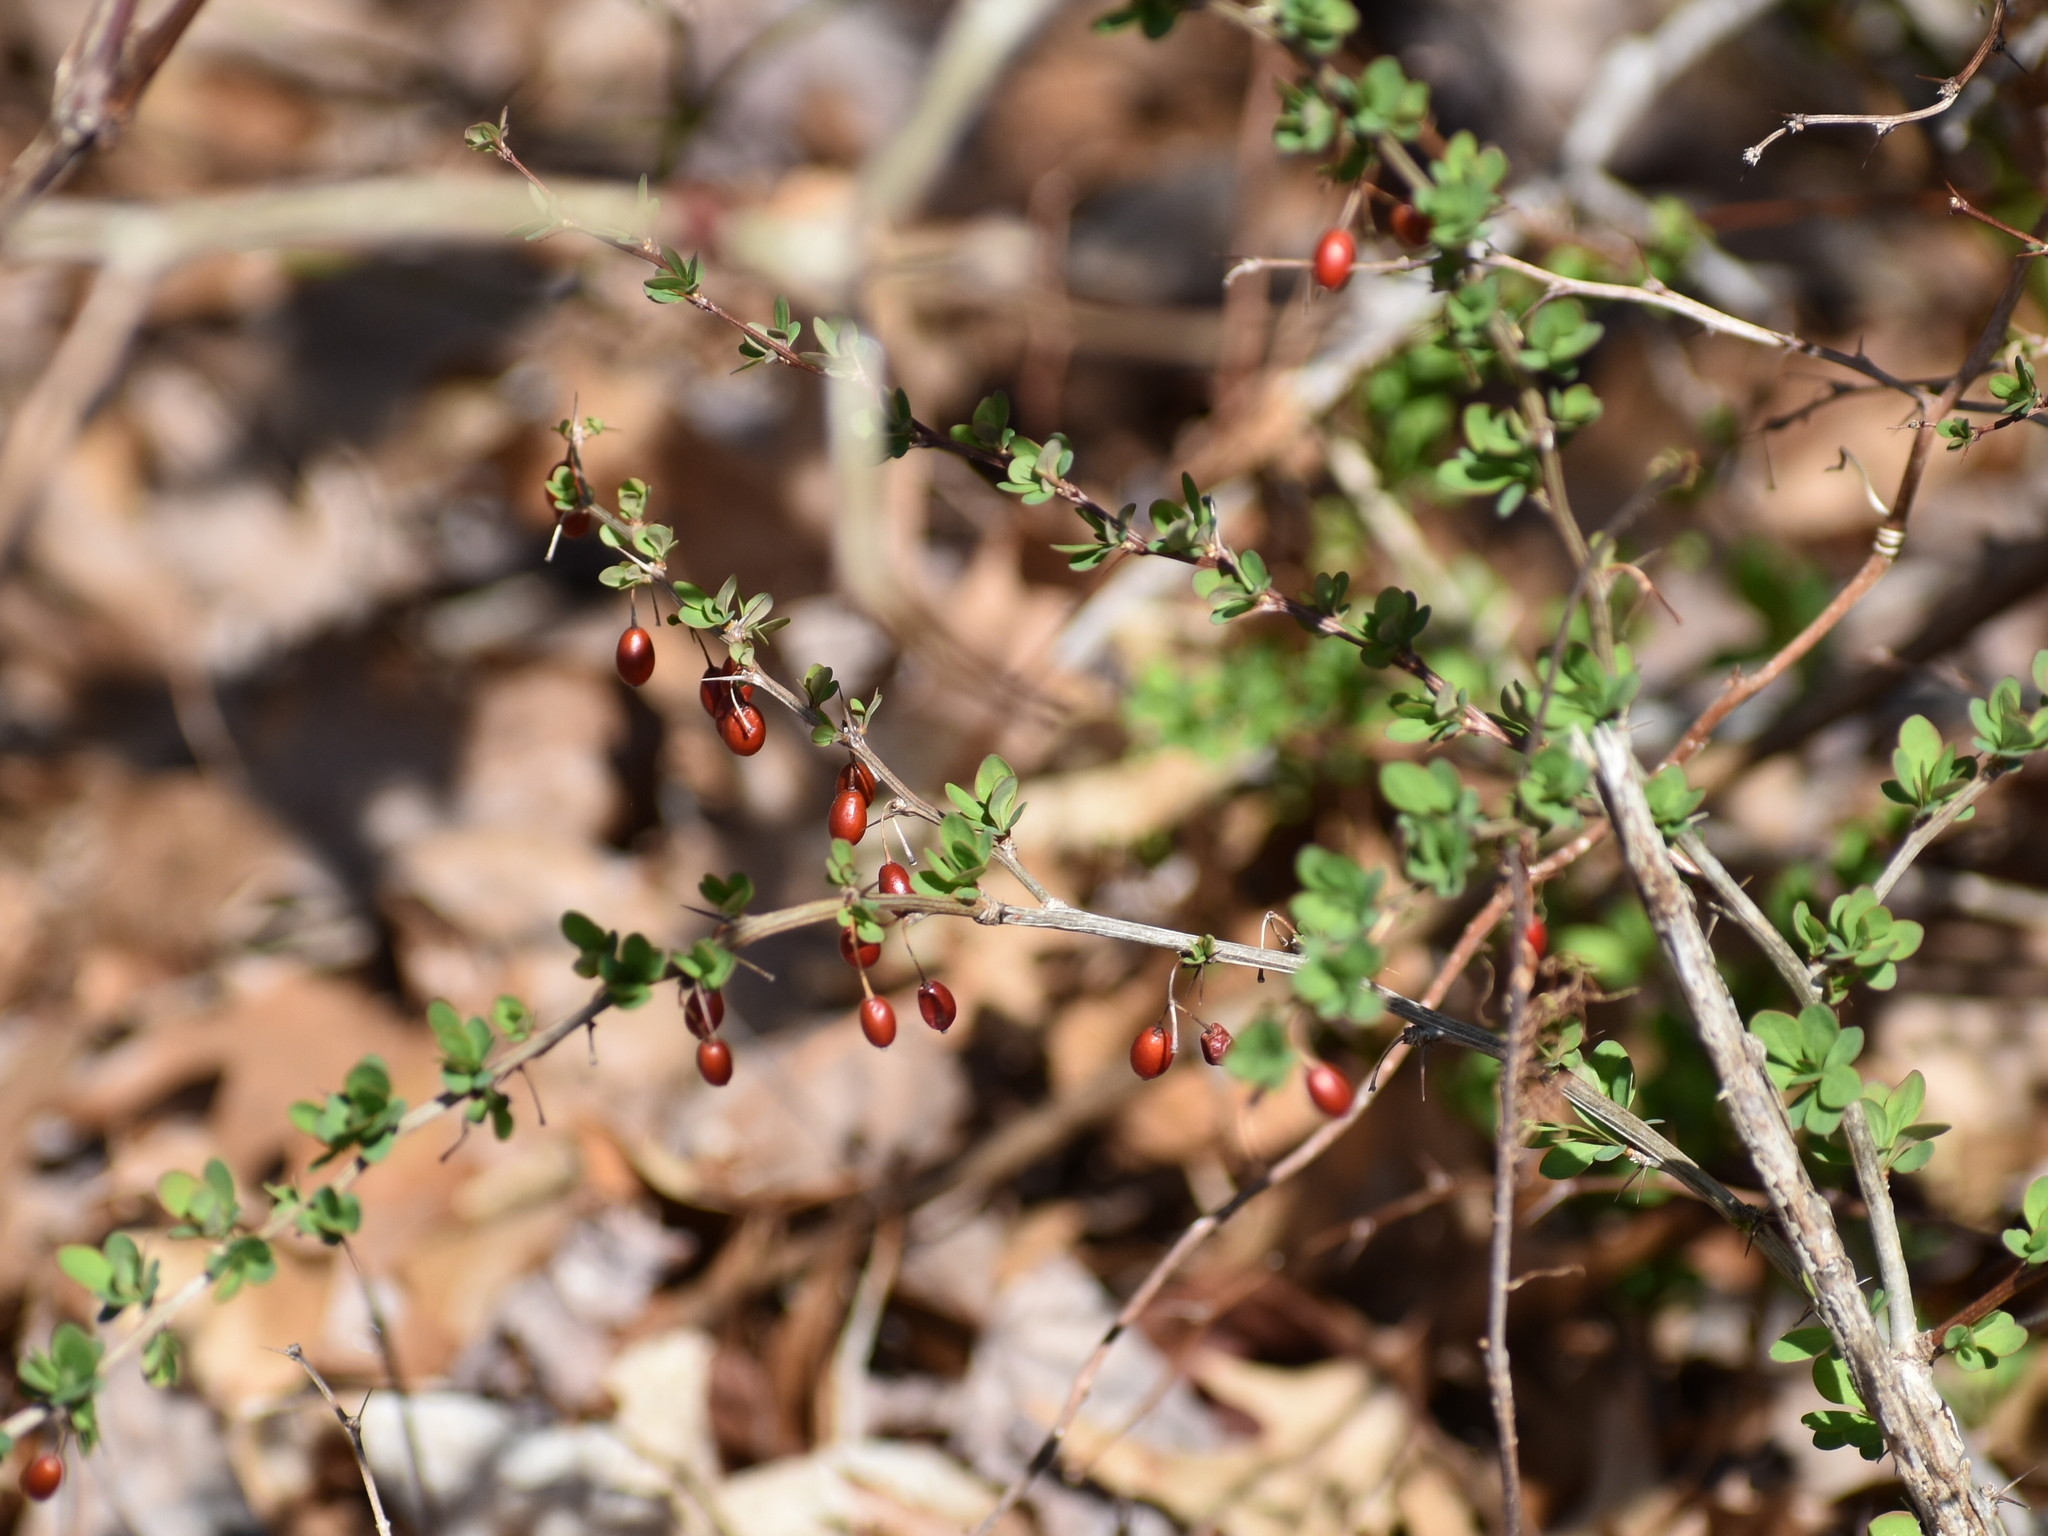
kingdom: Plantae
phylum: Tracheophyta
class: Magnoliopsida
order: Ranunculales
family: Berberidaceae
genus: Berberis
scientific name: Berberis thunbergii
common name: Japanese barberry
